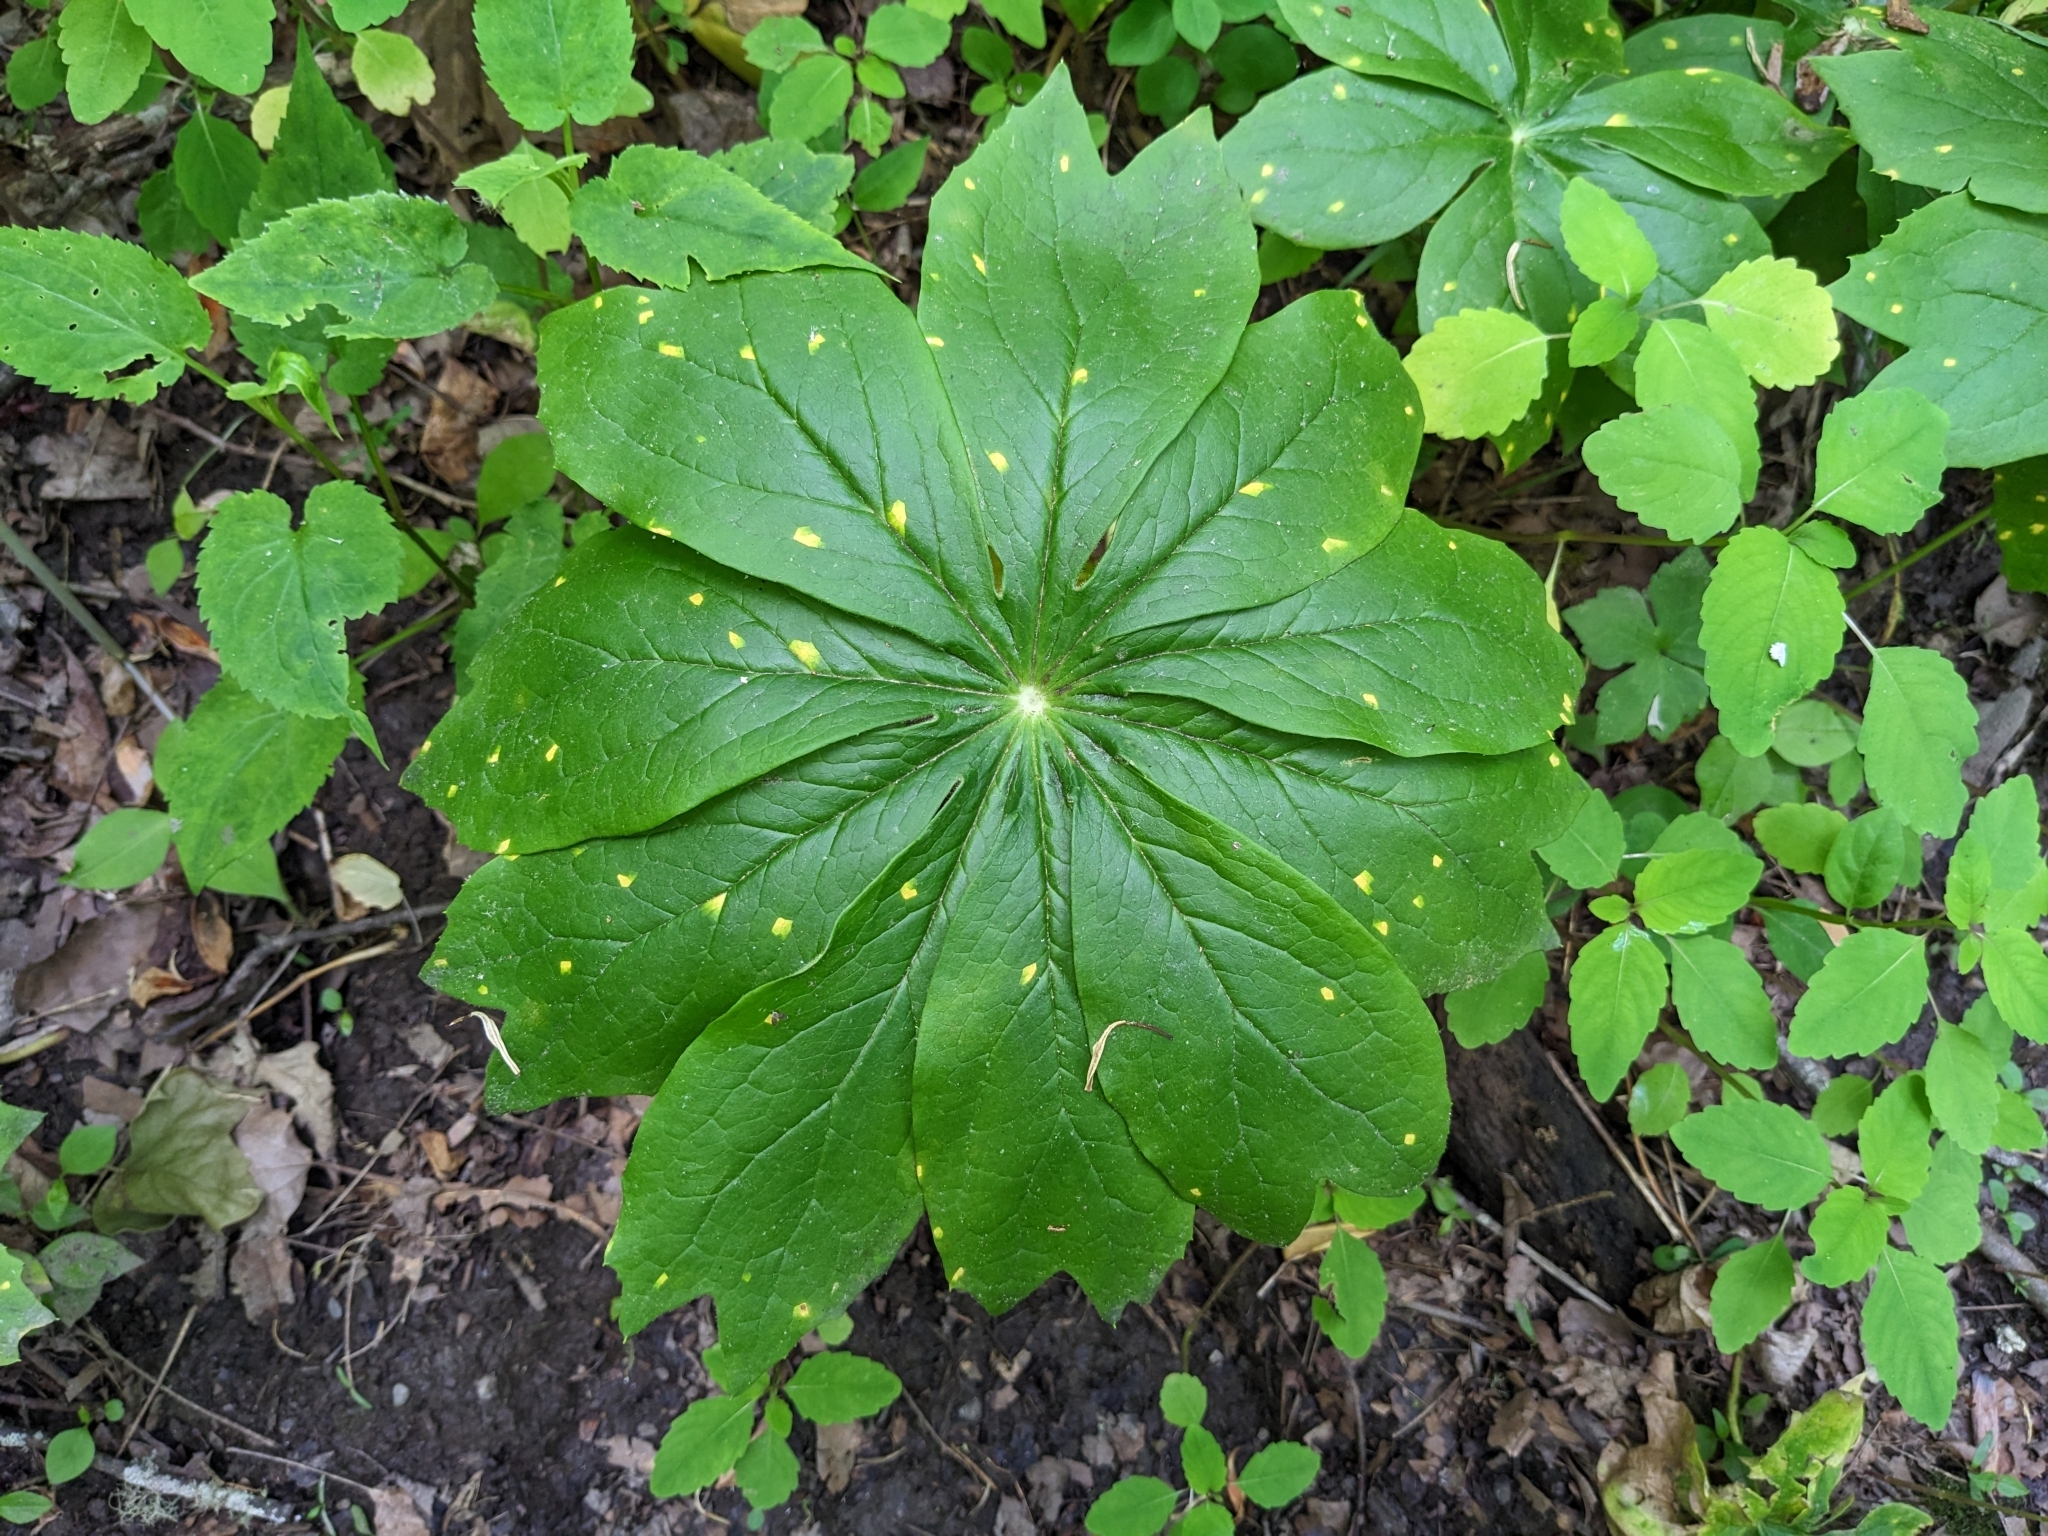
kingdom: Plantae
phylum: Tracheophyta
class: Magnoliopsida
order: Ranunculales
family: Berberidaceae
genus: Podophyllum
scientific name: Podophyllum peltatum
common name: Wild mandrake
